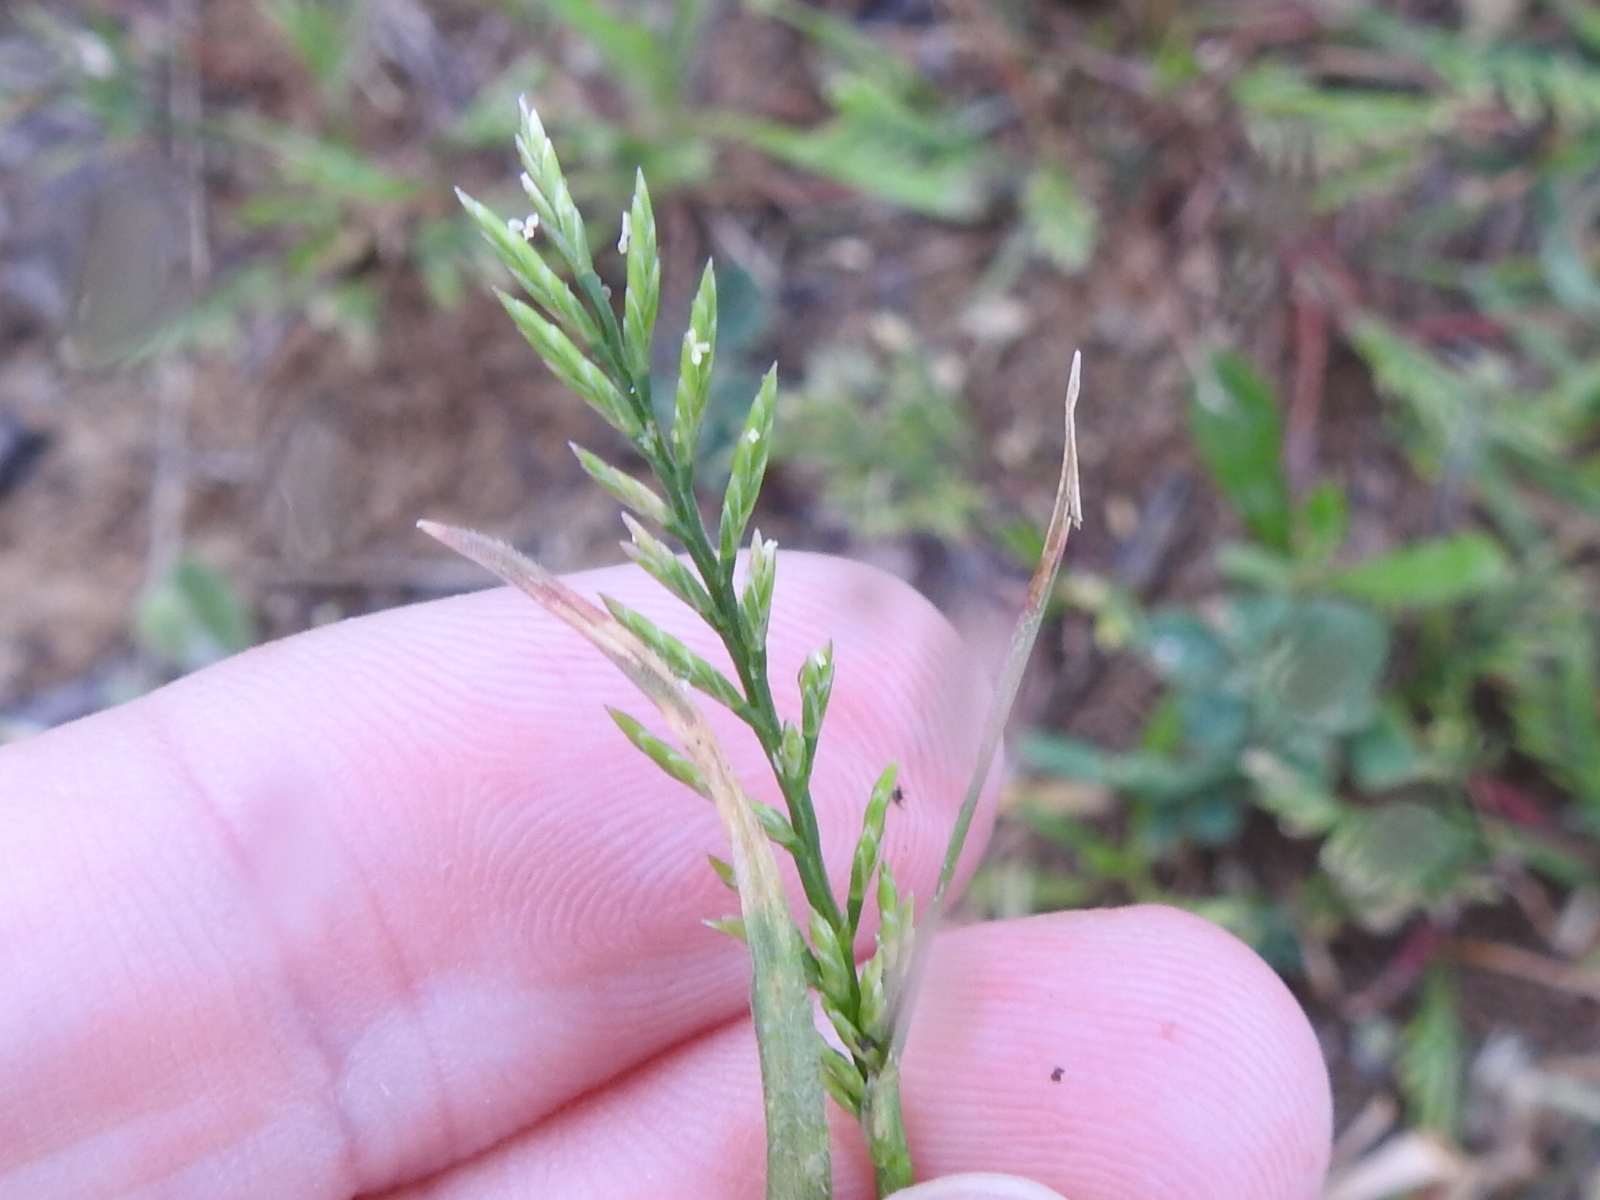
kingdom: Plantae
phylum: Tracheophyta
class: Liliopsida
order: Poales
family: Poaceae
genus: Catapodium
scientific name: Catapodium rigidum
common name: Fern-grass
